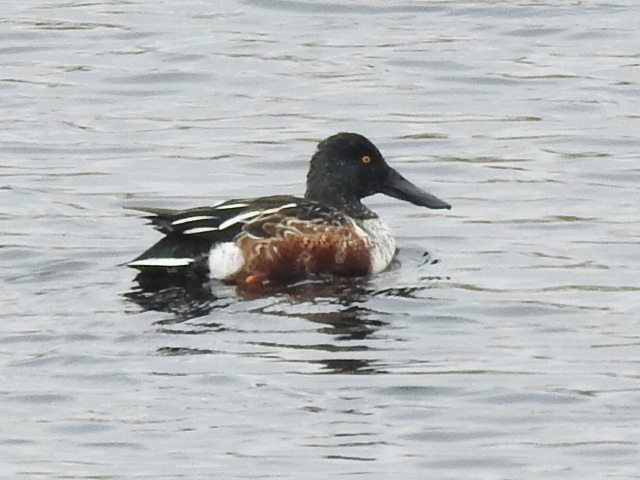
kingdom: Animalia
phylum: Chordata
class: Aves
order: Anseriformes
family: Anatidae
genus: Spatula
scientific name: Spatula clypeata
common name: Northern shoveler
